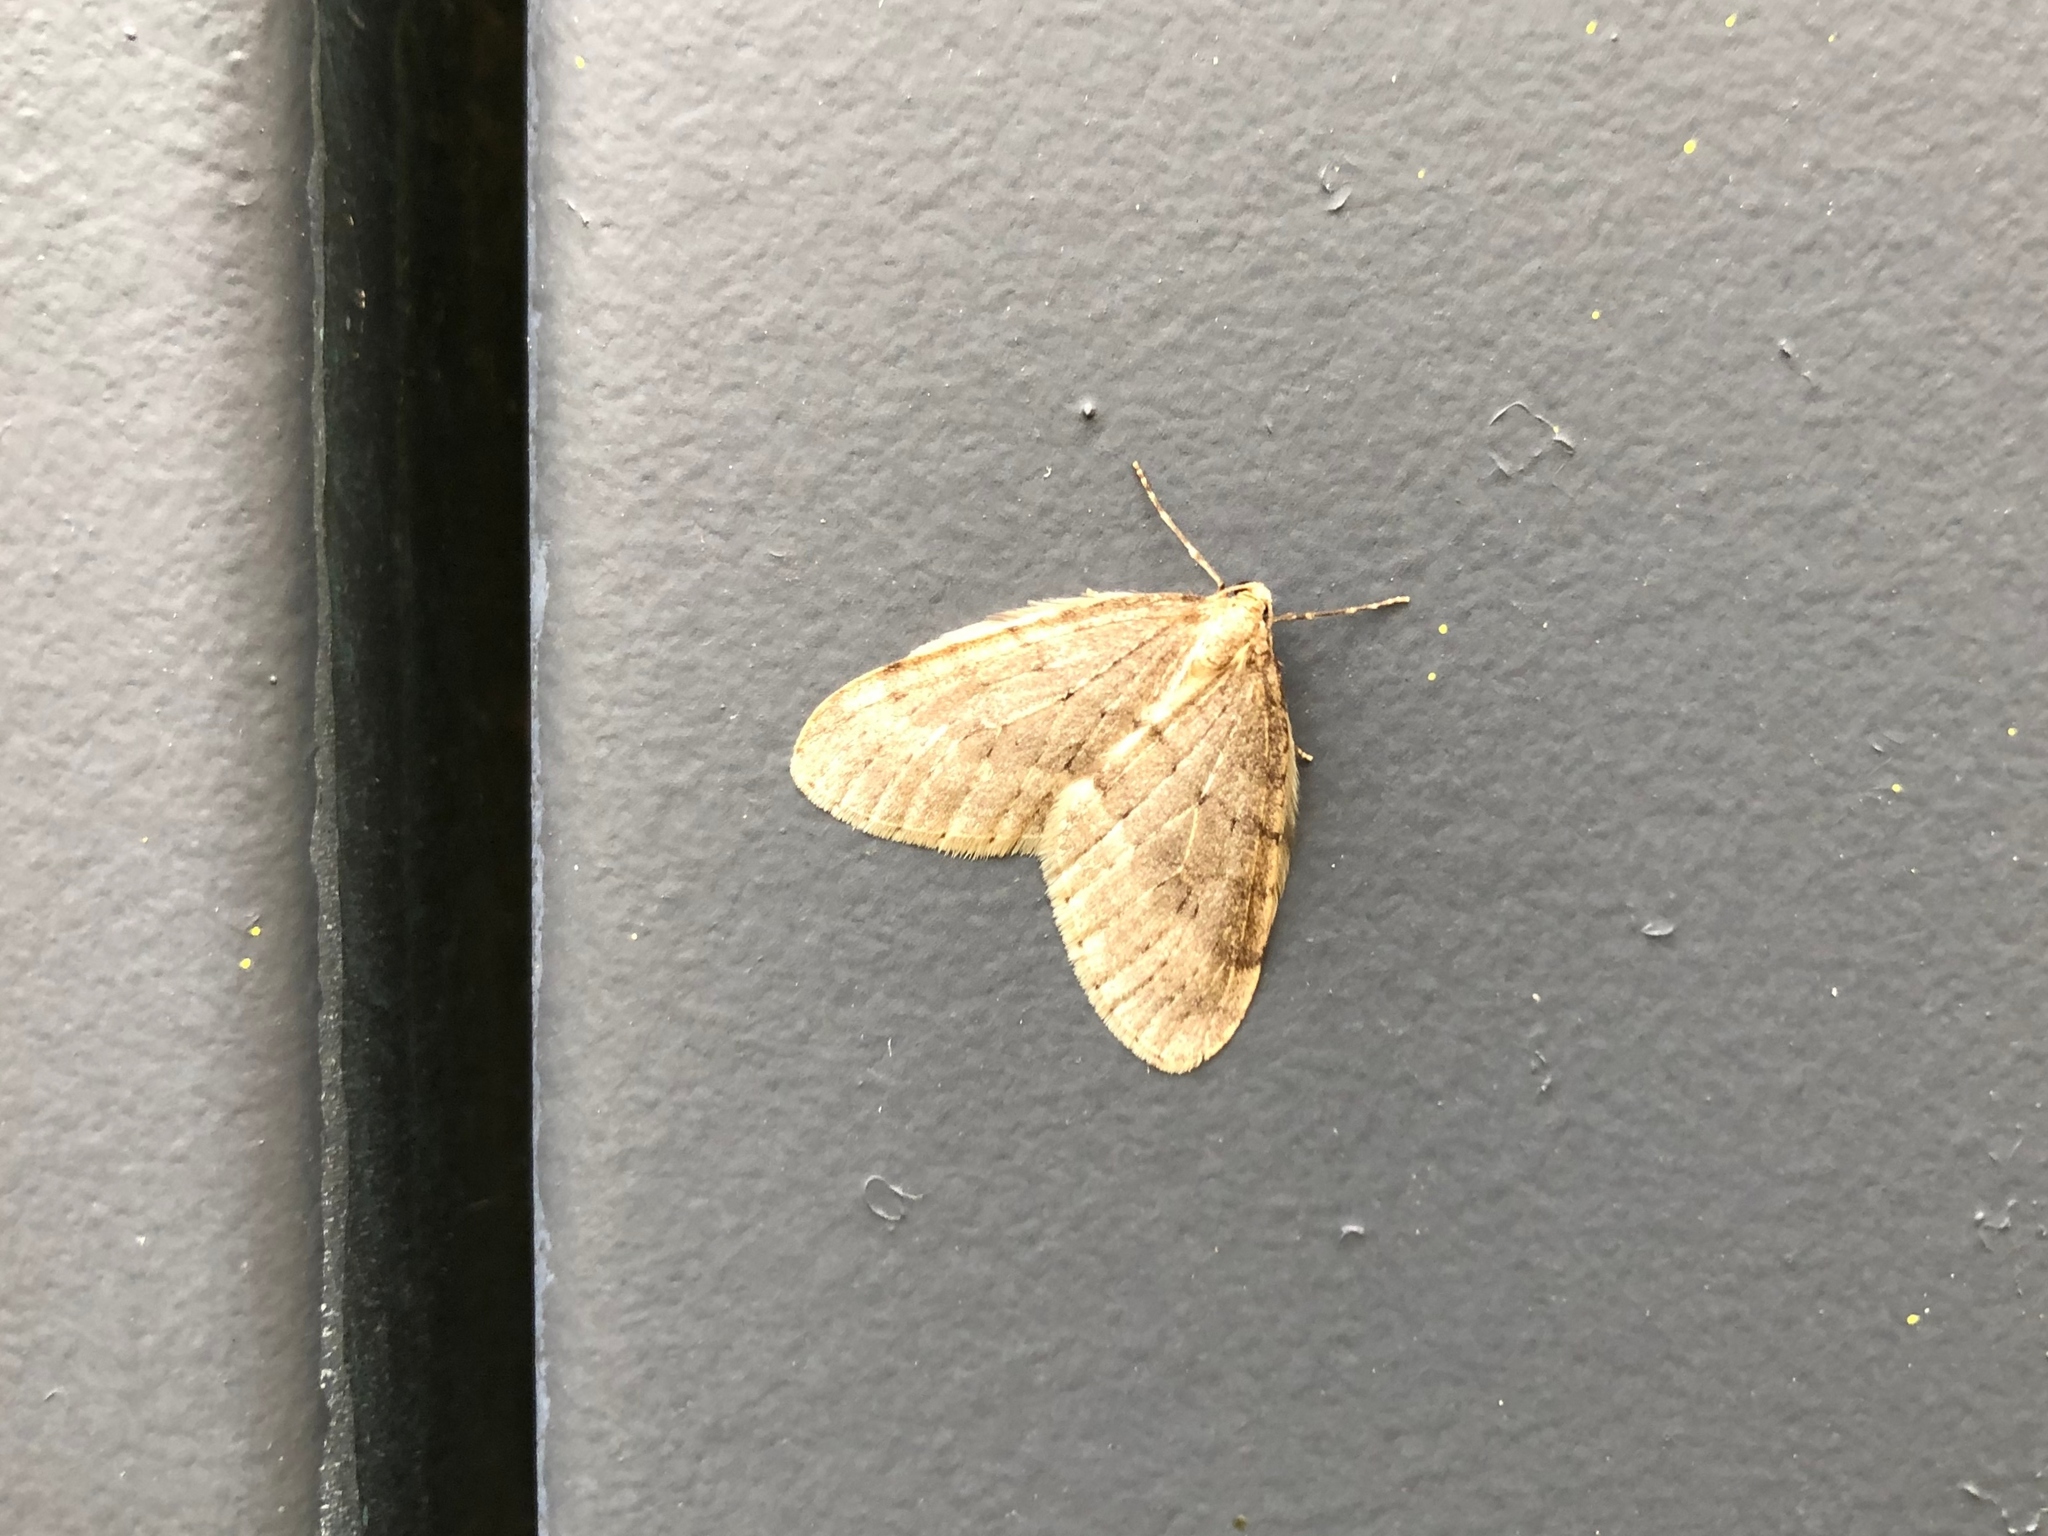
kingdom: Animalia
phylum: Arthropoda
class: Insecta
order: Lepidoptera
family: Geometridae
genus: Operophtera
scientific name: Operophtera fagata
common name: Northern winter moth
